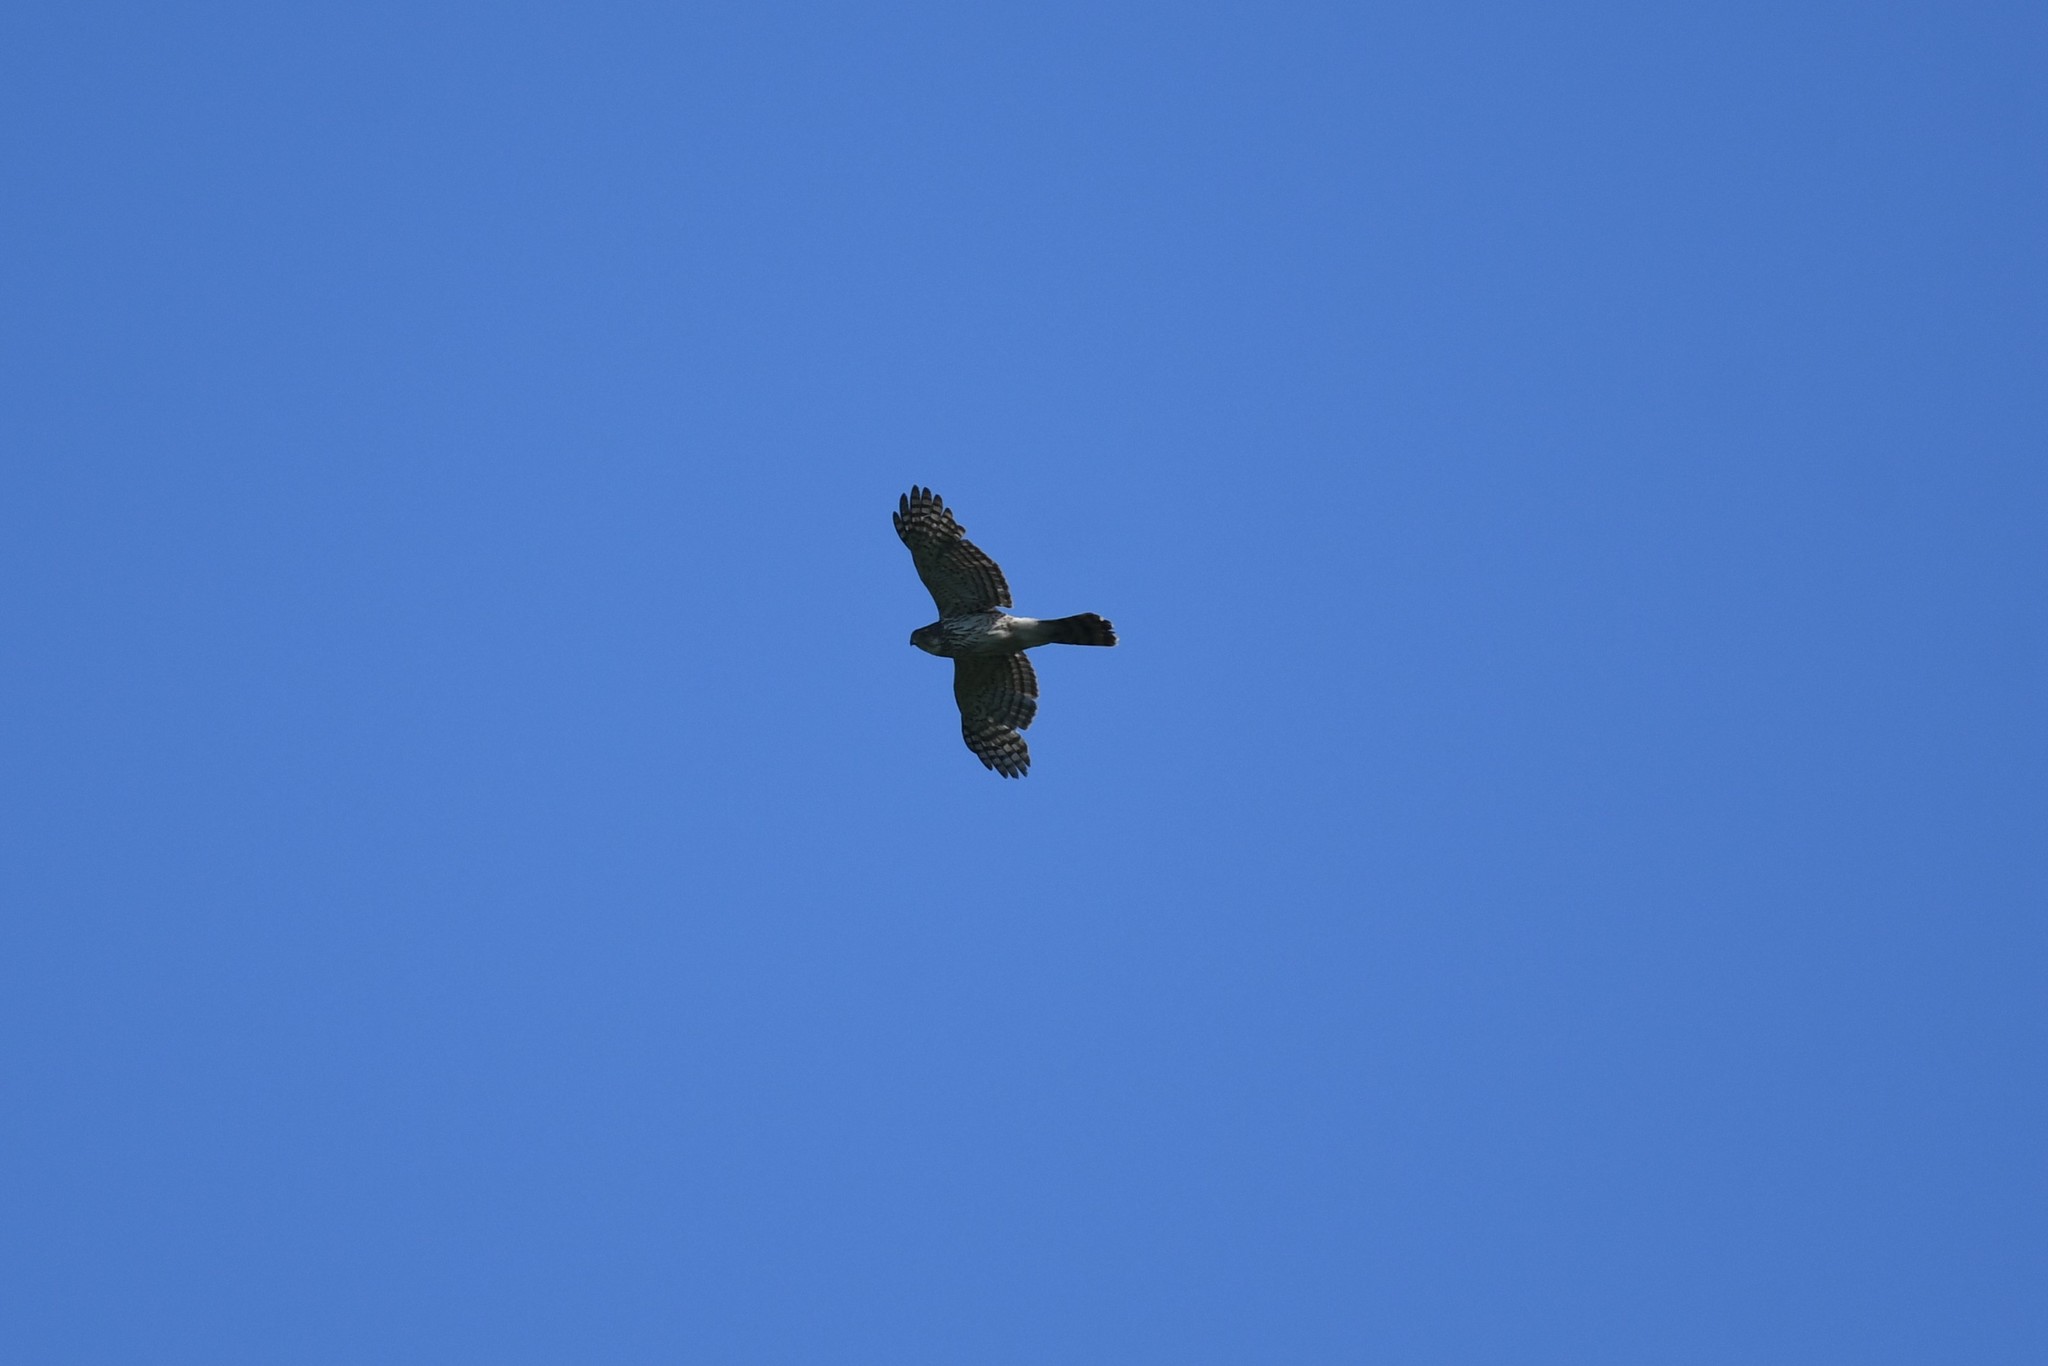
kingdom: Animalia
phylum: Chordata
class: Aves
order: Accipitriformes
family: Accipitridae
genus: Accipiter
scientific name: Accipiter cooperii
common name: Cooper's hawk
